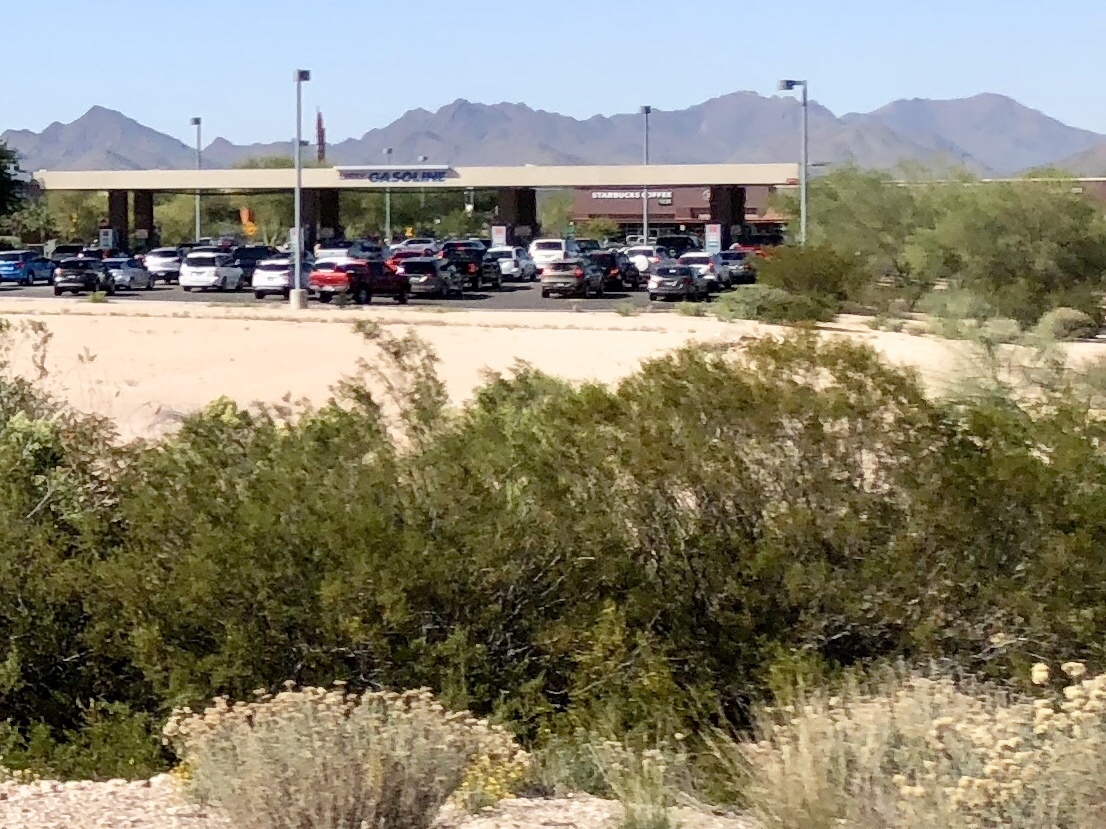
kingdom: Plantae
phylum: Tracheophyta
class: Magnoliopsida
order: Zygophyllales
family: Zygophyllaceae
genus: Larrea
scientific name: Larrea tridentata
